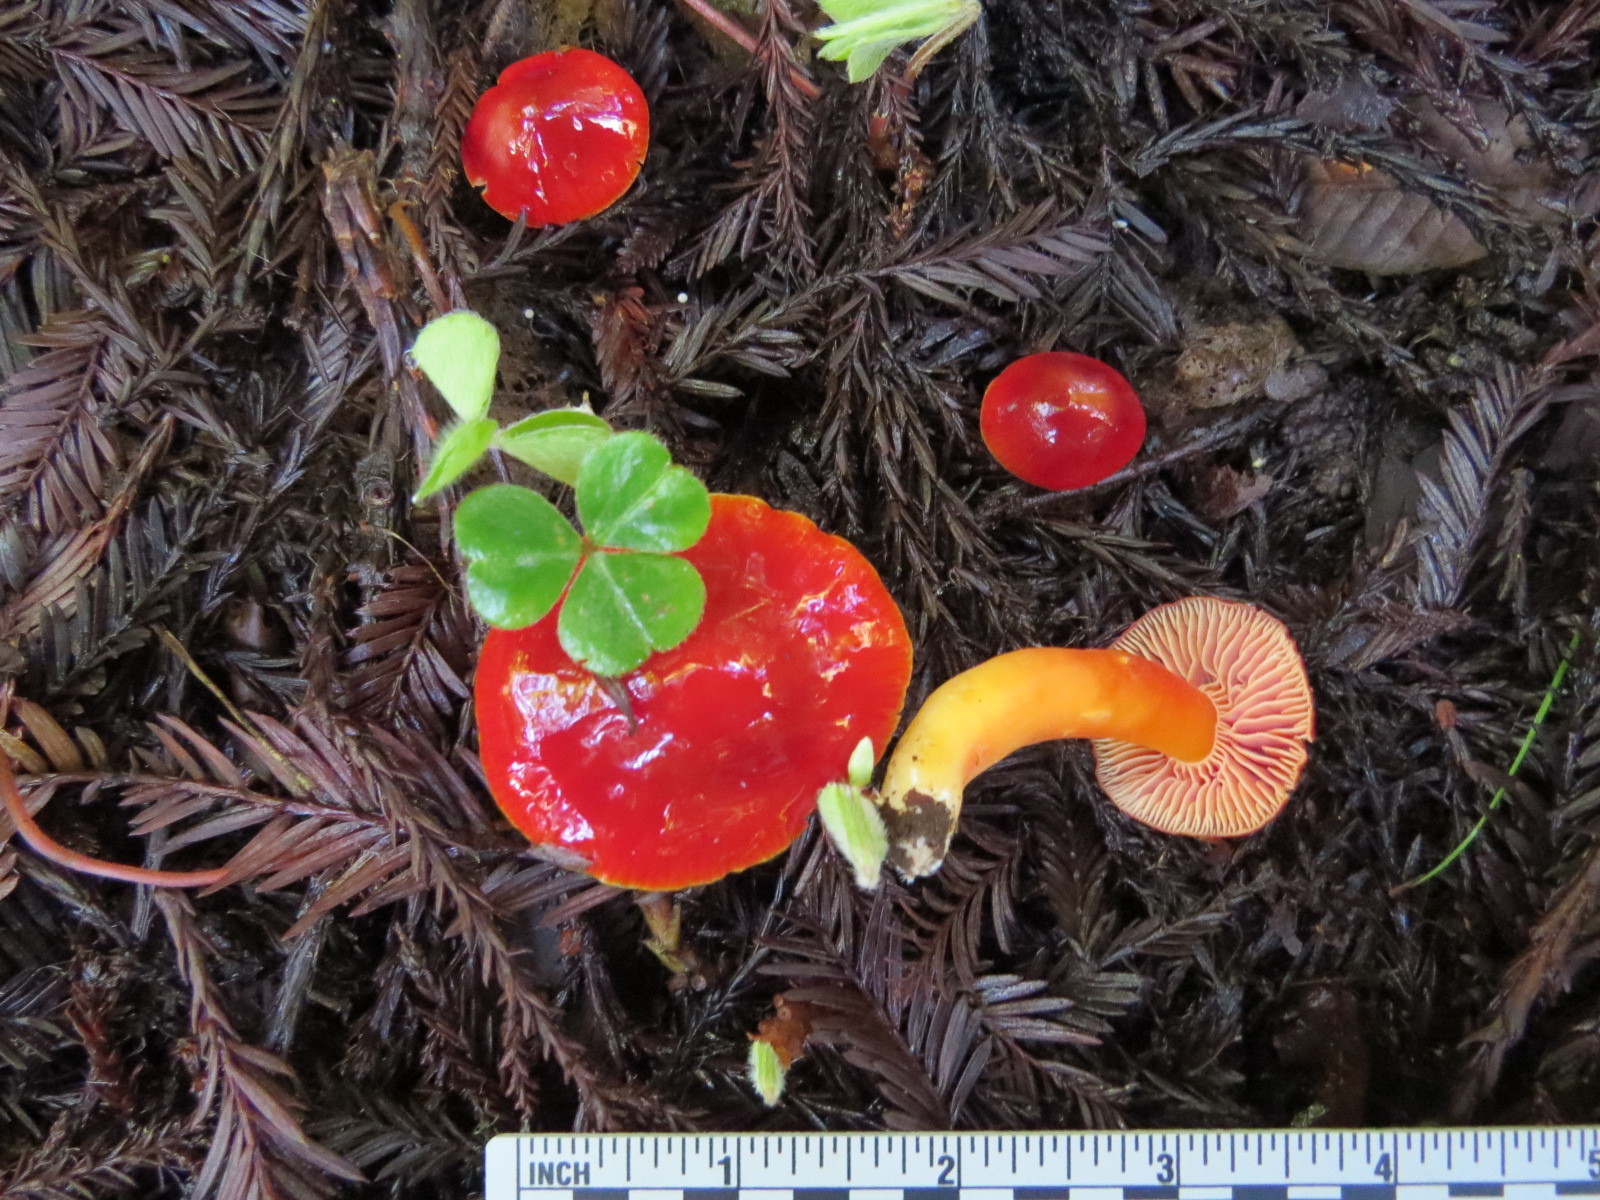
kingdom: Fungi
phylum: Basidiomycota
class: Agaricomycetes
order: Agaricales
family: Hygrophoraceae
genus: Hygrocybe
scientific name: Hygrocybe laetissima
